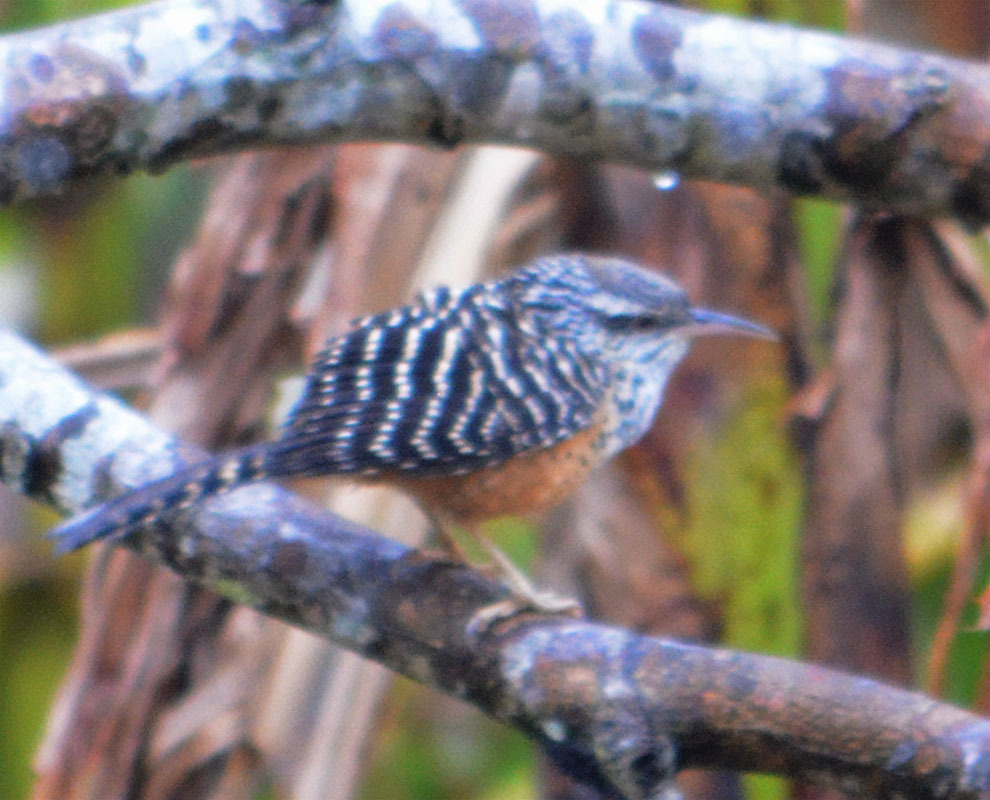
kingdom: Animalia
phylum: Chordata
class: Aves
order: Passeriformes
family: Troglodytidae
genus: Campylorhynchus
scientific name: Campylorhynchus zonatus
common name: Band-backed wren
